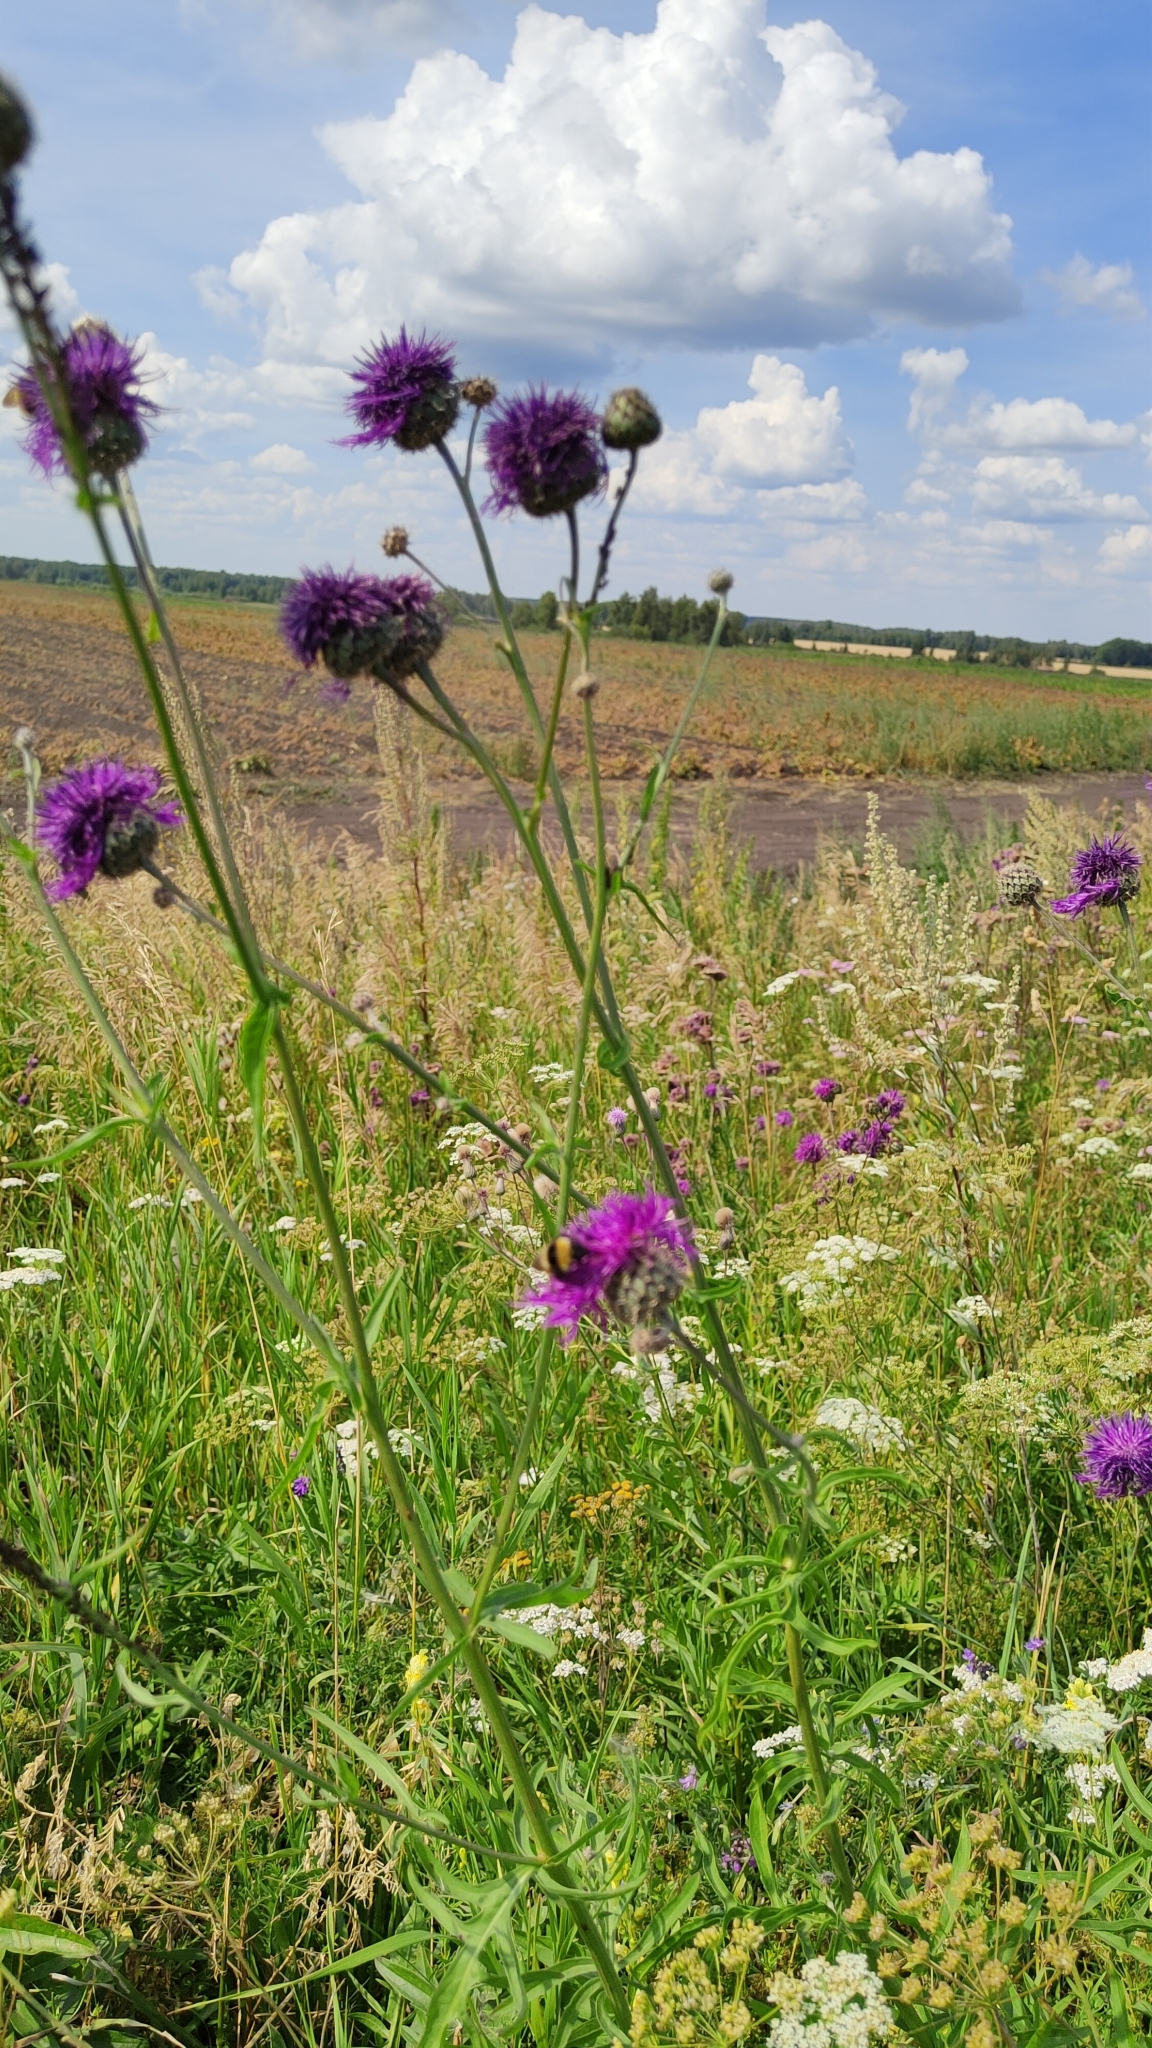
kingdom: Plantae
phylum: Tracheophyta
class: Magnoliopsida
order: Asterales
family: Asteraceae
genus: Centaurea
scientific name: Centaurea scabiosa
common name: Greater knapweed
